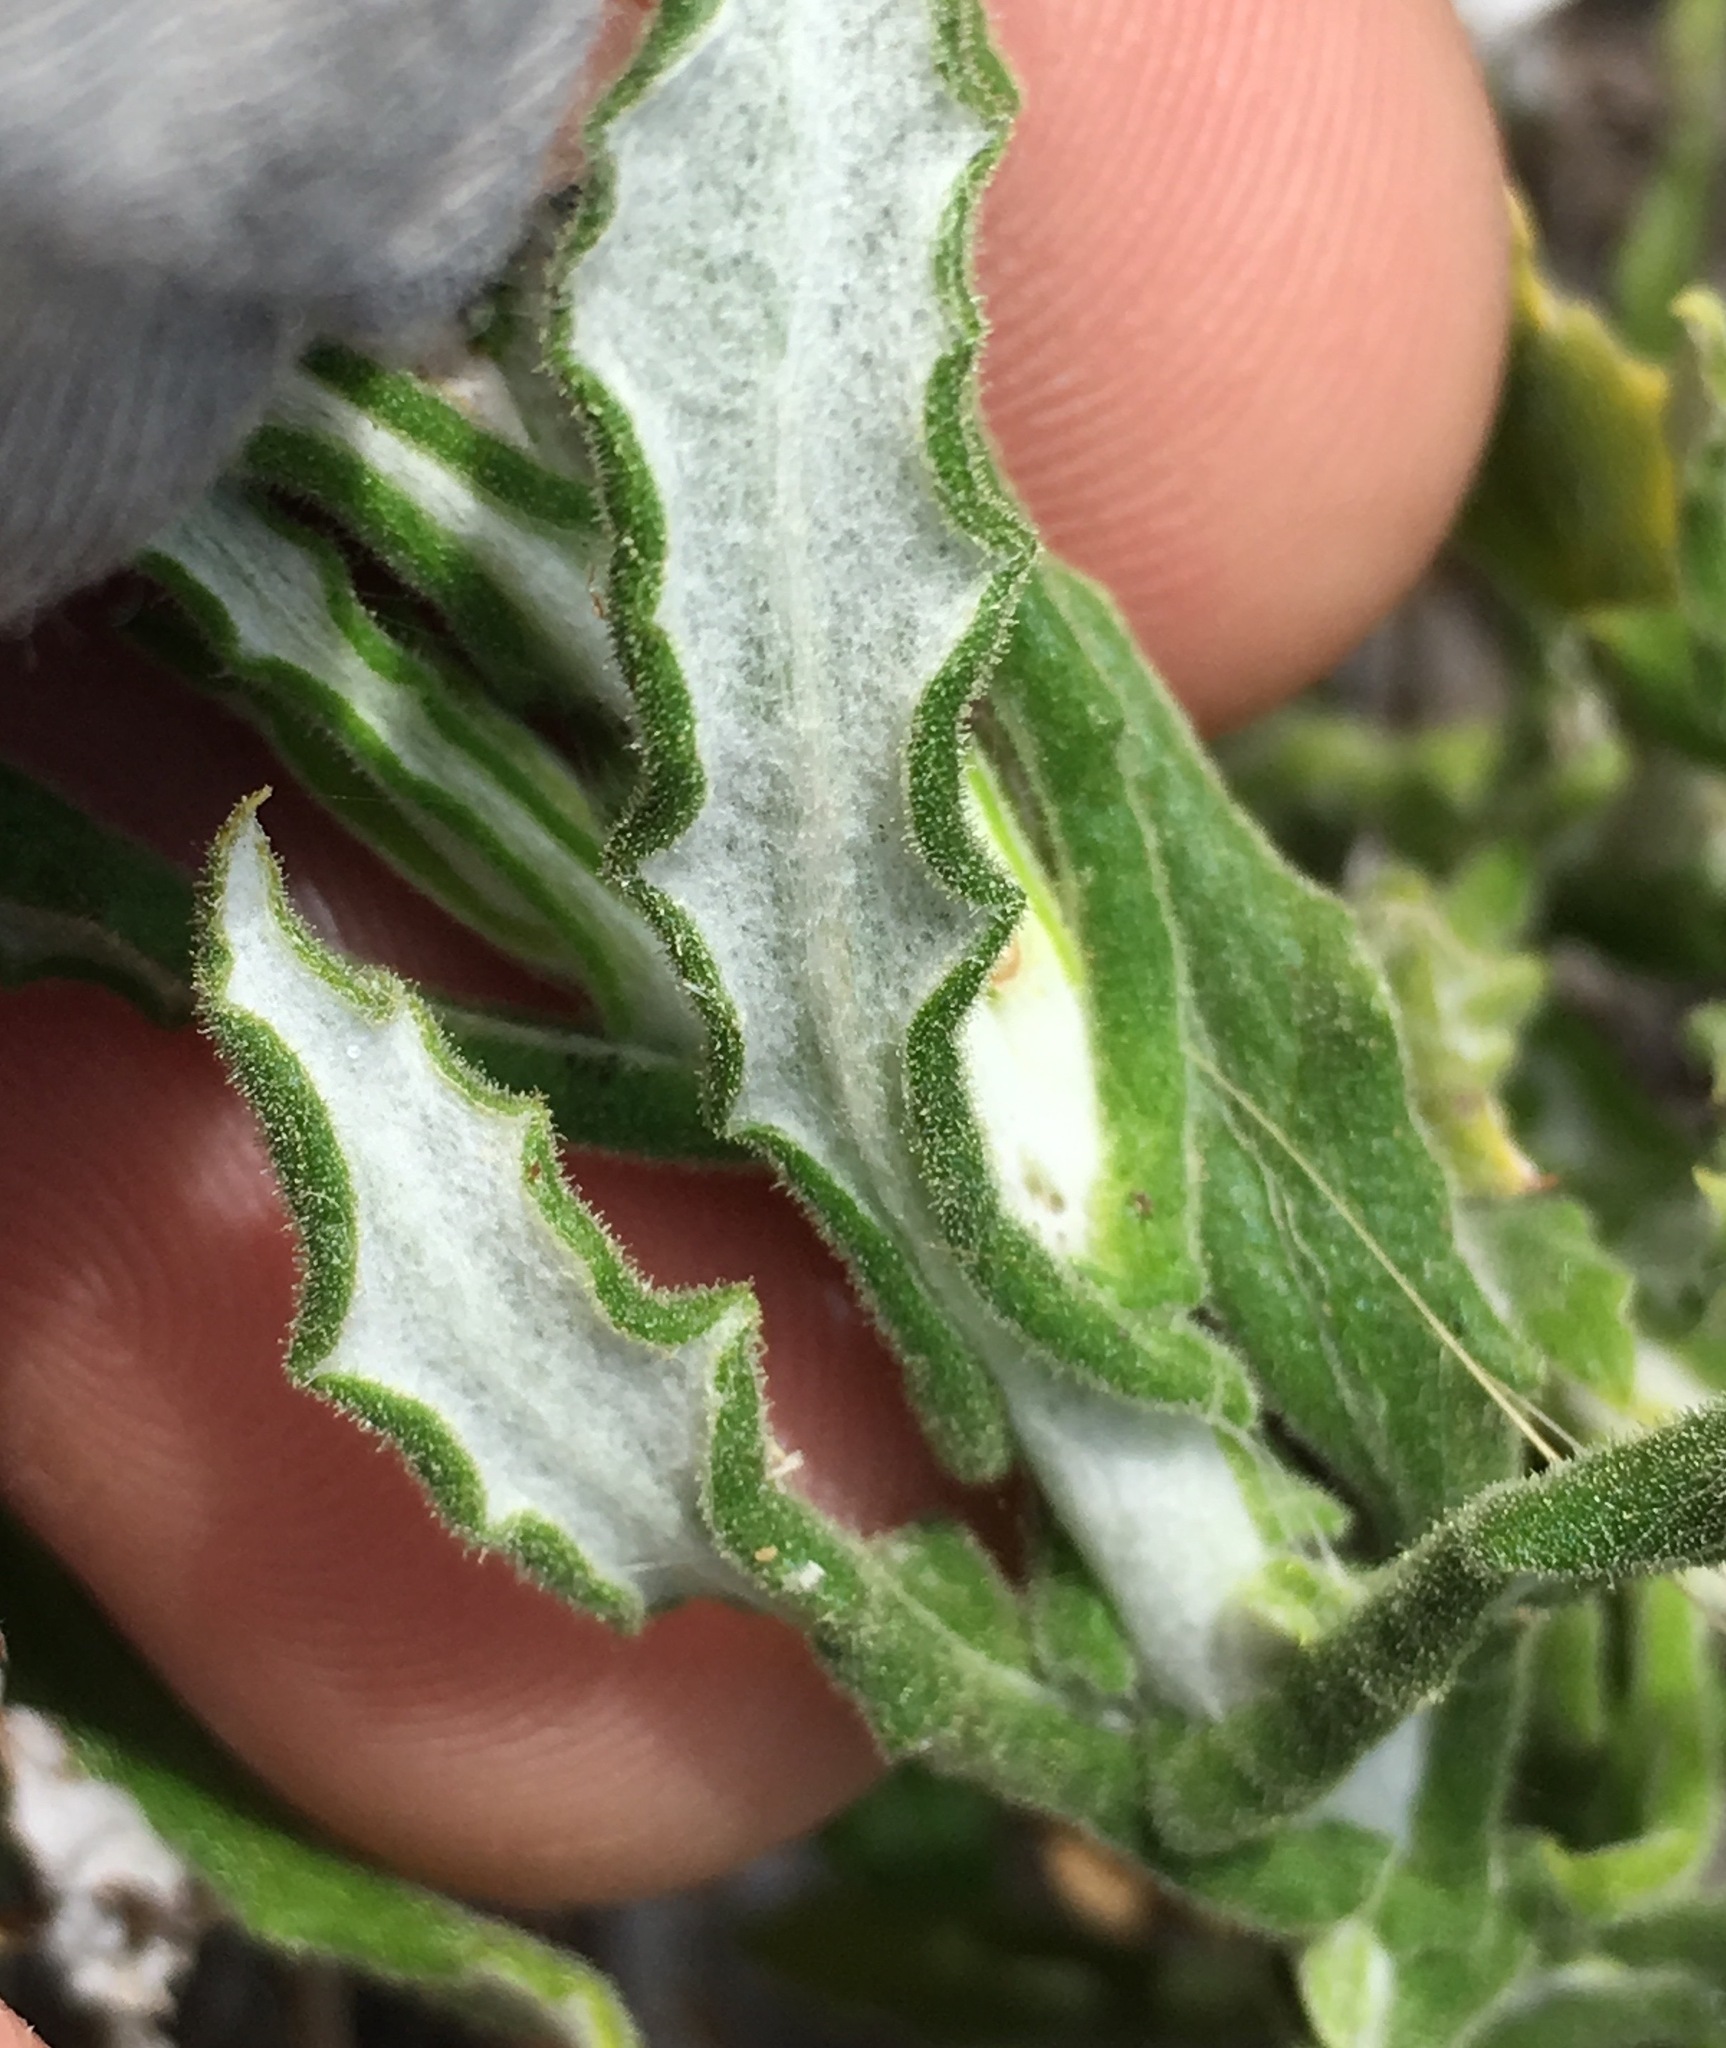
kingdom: Plantae
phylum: Tracheophyta
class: Magnoliopsida
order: Asterales
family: Asteraceae
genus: Pseudognaphalium
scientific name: Pseudognaphalium biolettii
